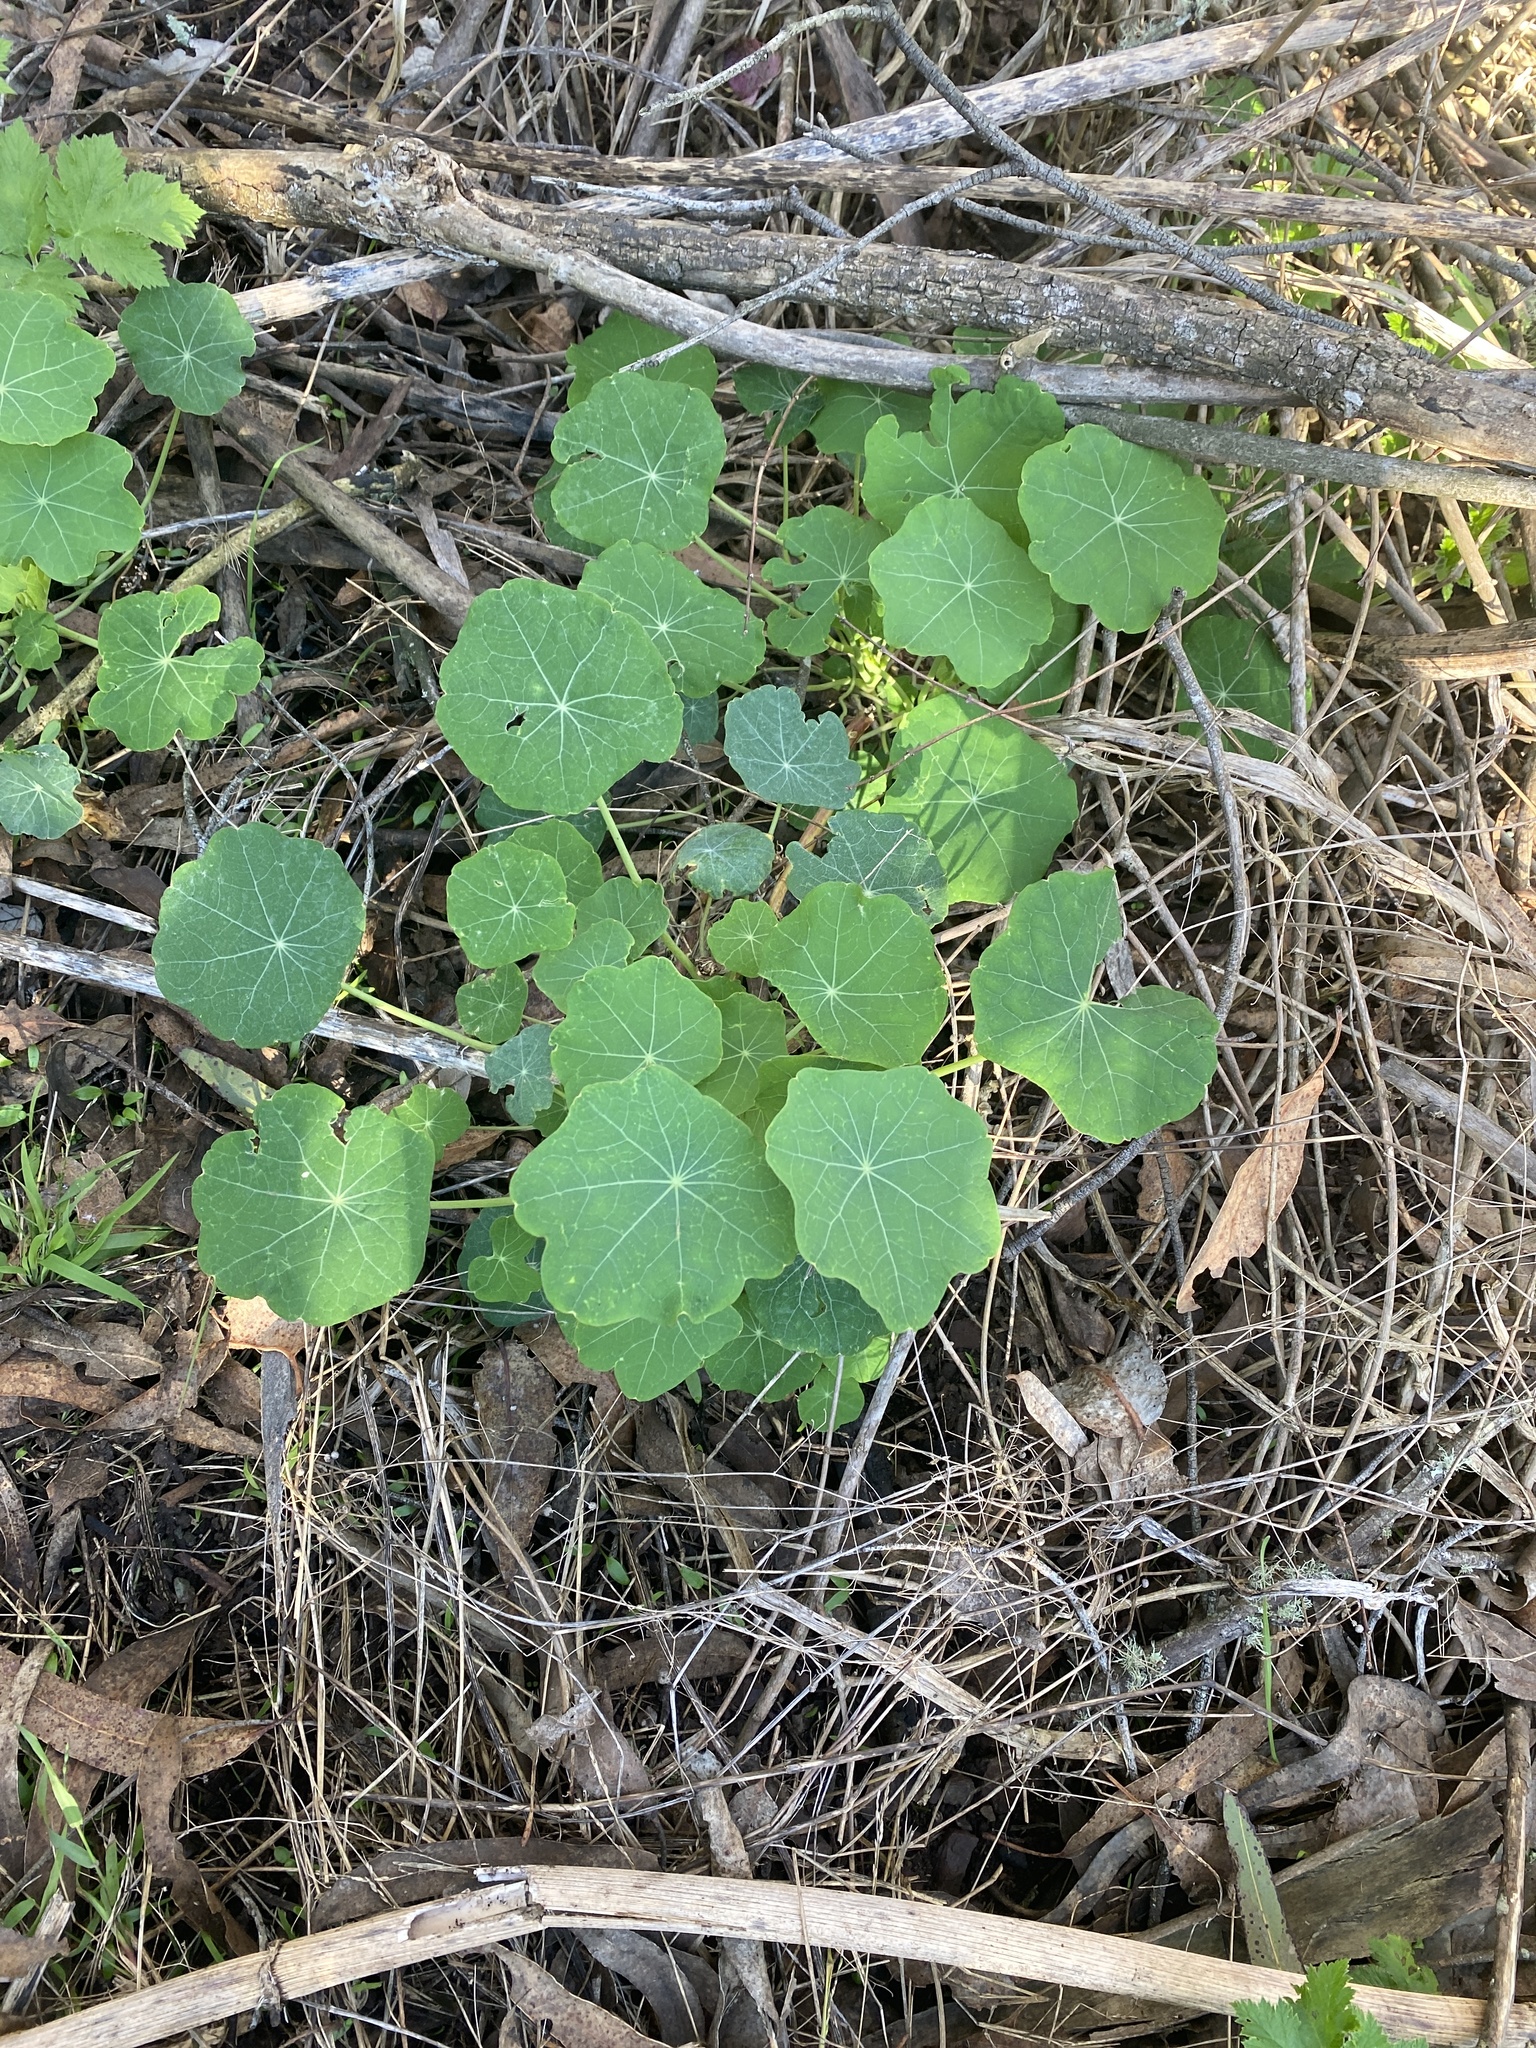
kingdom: Plantae
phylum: Tracheophyta
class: Magnoliopsida
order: Brassicales
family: Tropaeolaceae
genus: Tropaeolum
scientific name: Tropaeolum majus
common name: Nasturtium
